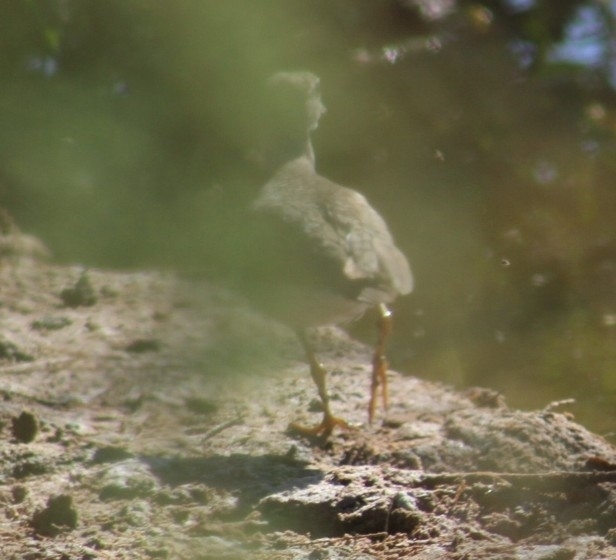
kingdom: Animalia
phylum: Chordata
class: Aves
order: Charadriiformes
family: Scolopacidae
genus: Actitis
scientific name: Actitis macularius
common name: Spotted sandpiper
